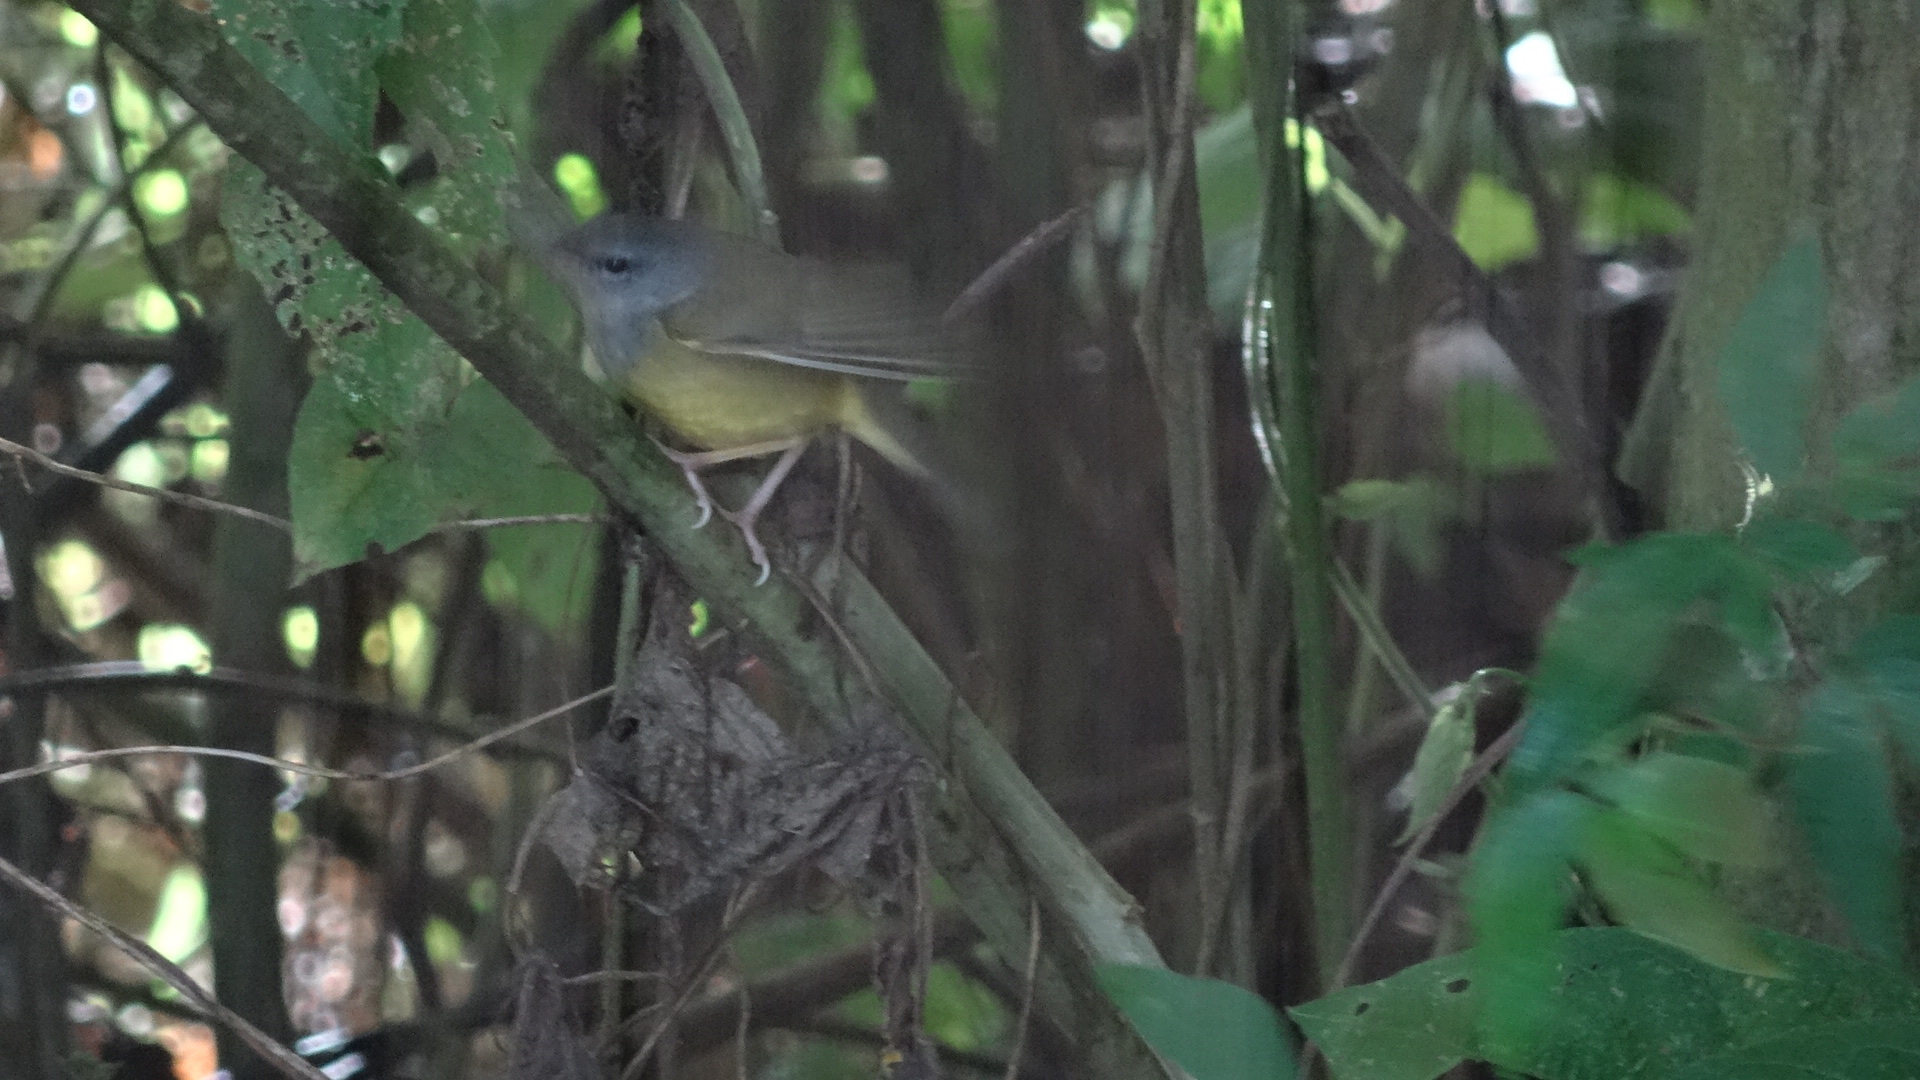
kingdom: Animalia
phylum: Chordata
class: Aves
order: Passeriformes
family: Parulidae
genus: Geothlypis
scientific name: Geothlypis philadelphia
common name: Mourning warbler
